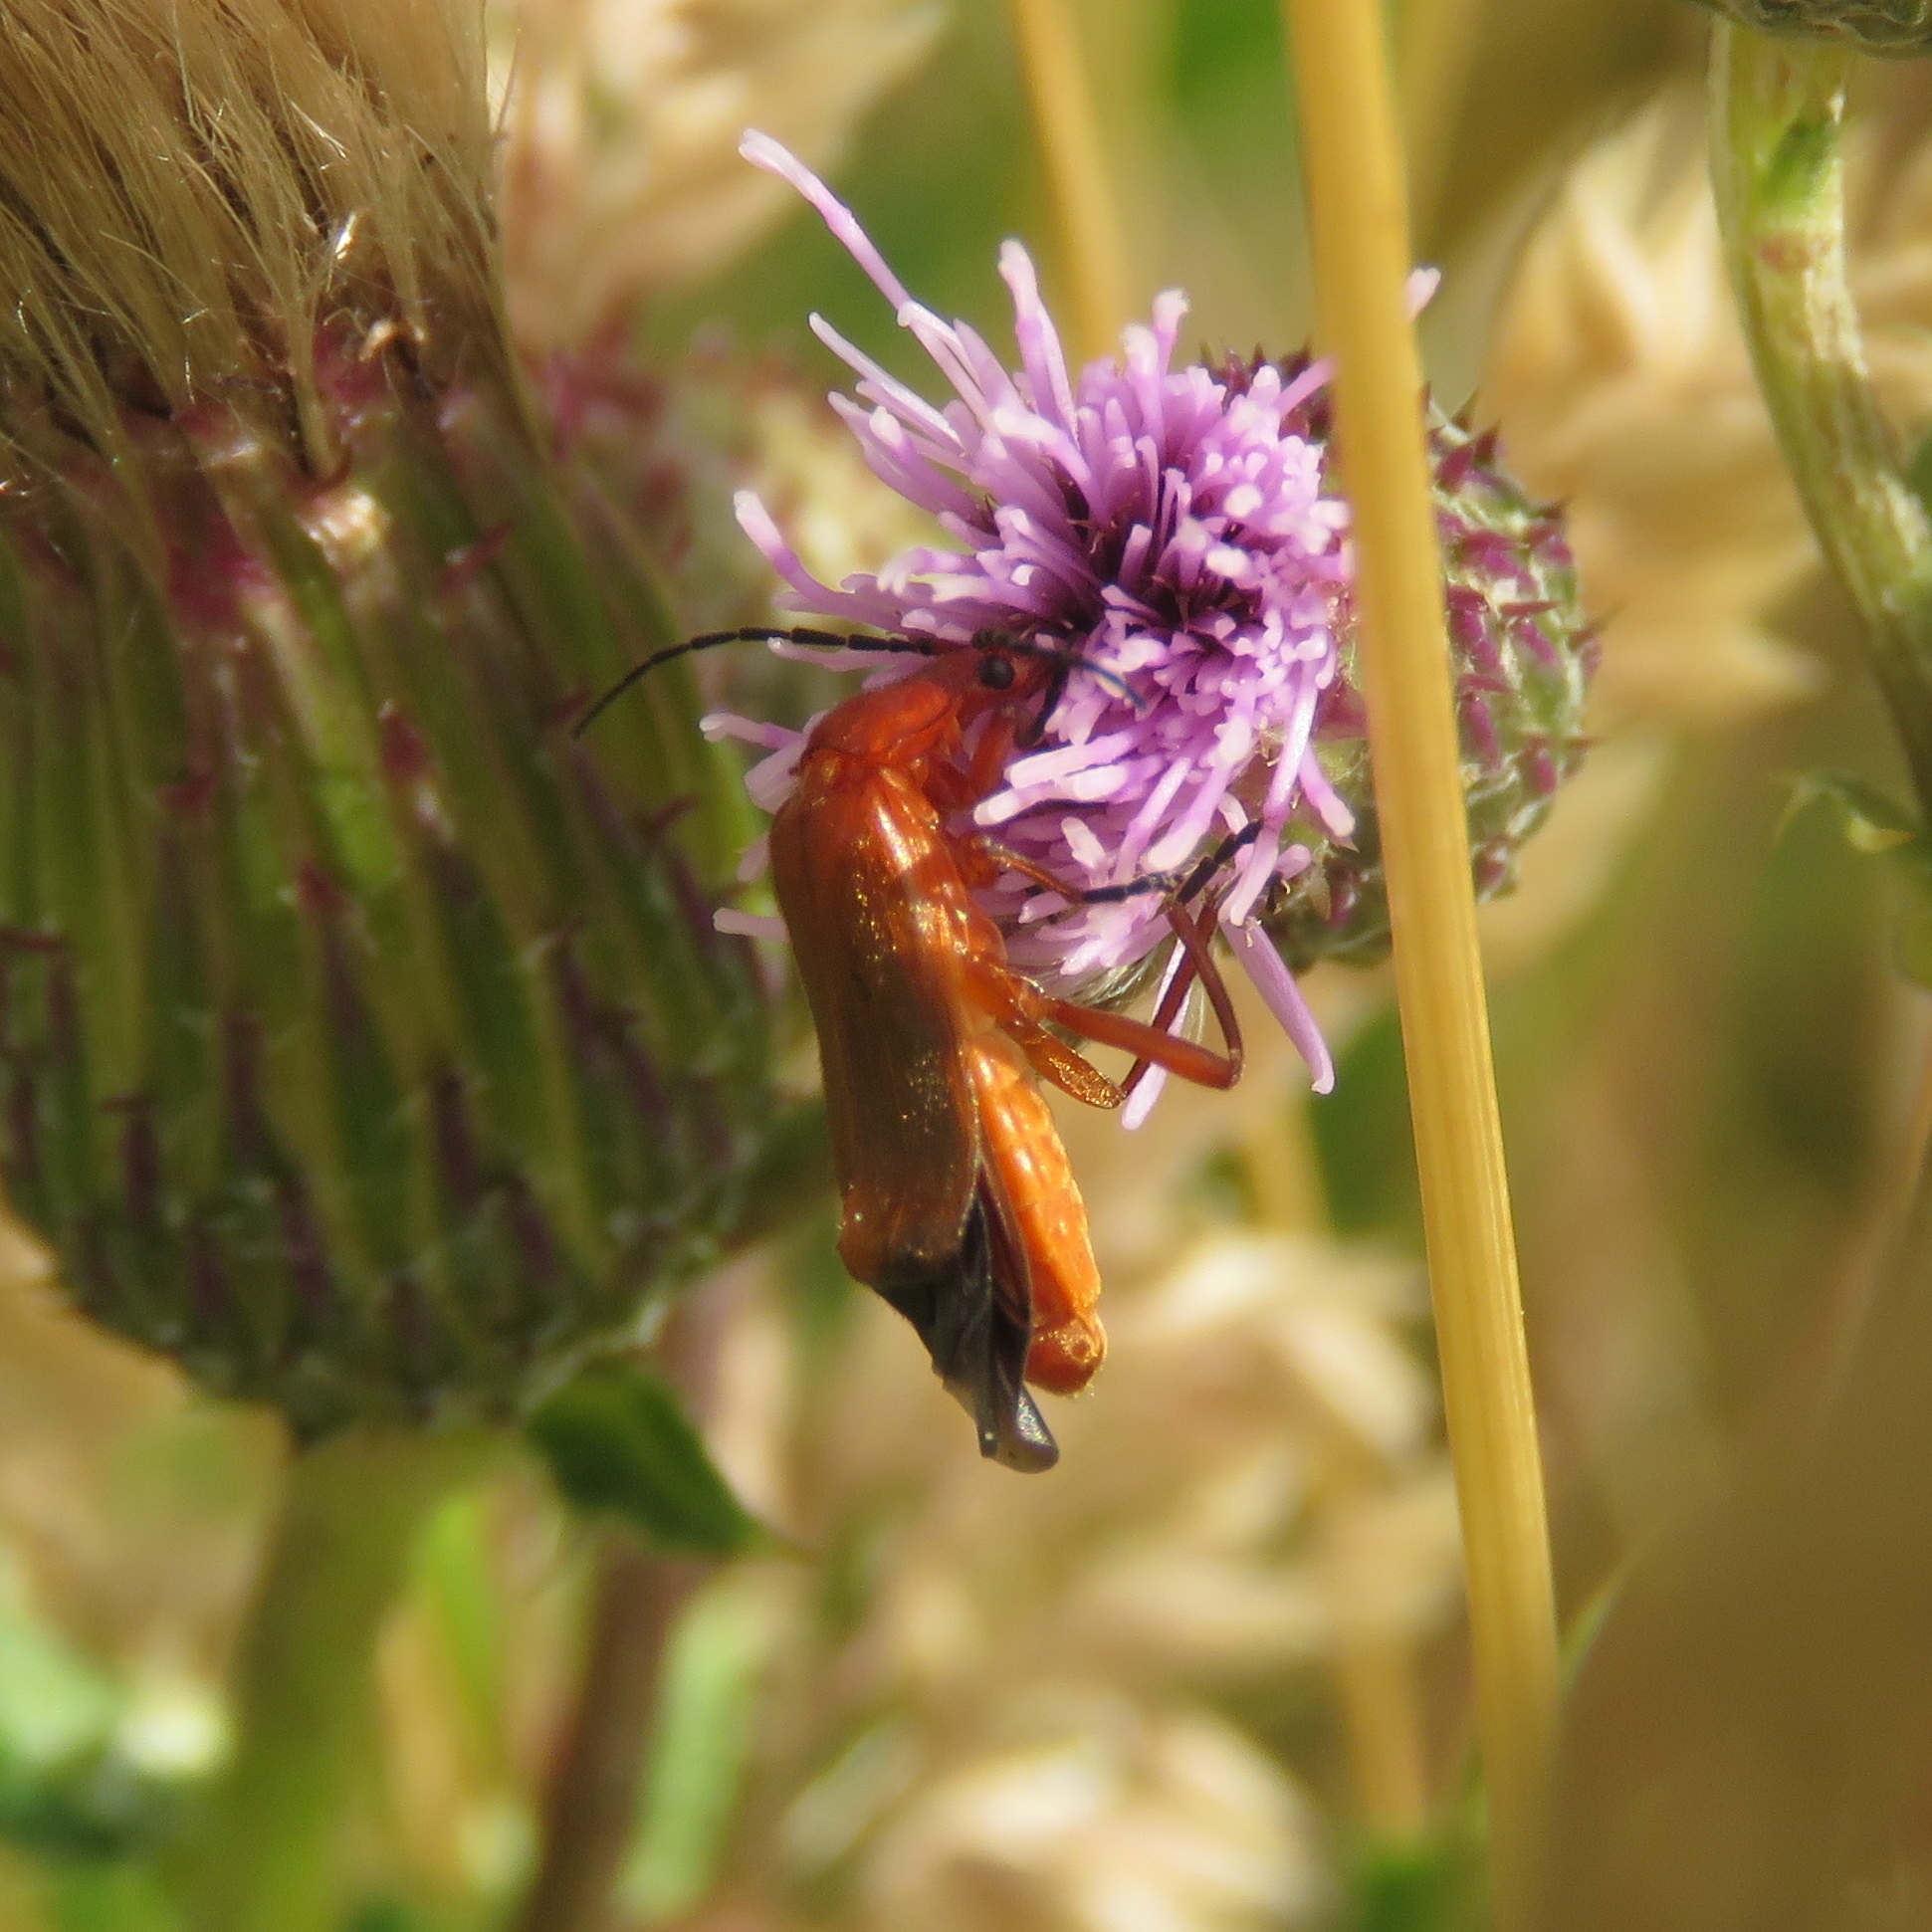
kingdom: Animalia
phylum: Arthropoda
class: Insecta
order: Coleoptera
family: Cantharidae
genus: Rhagonycha
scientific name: Rhagonycha fulva
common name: Common red soldier beetle
